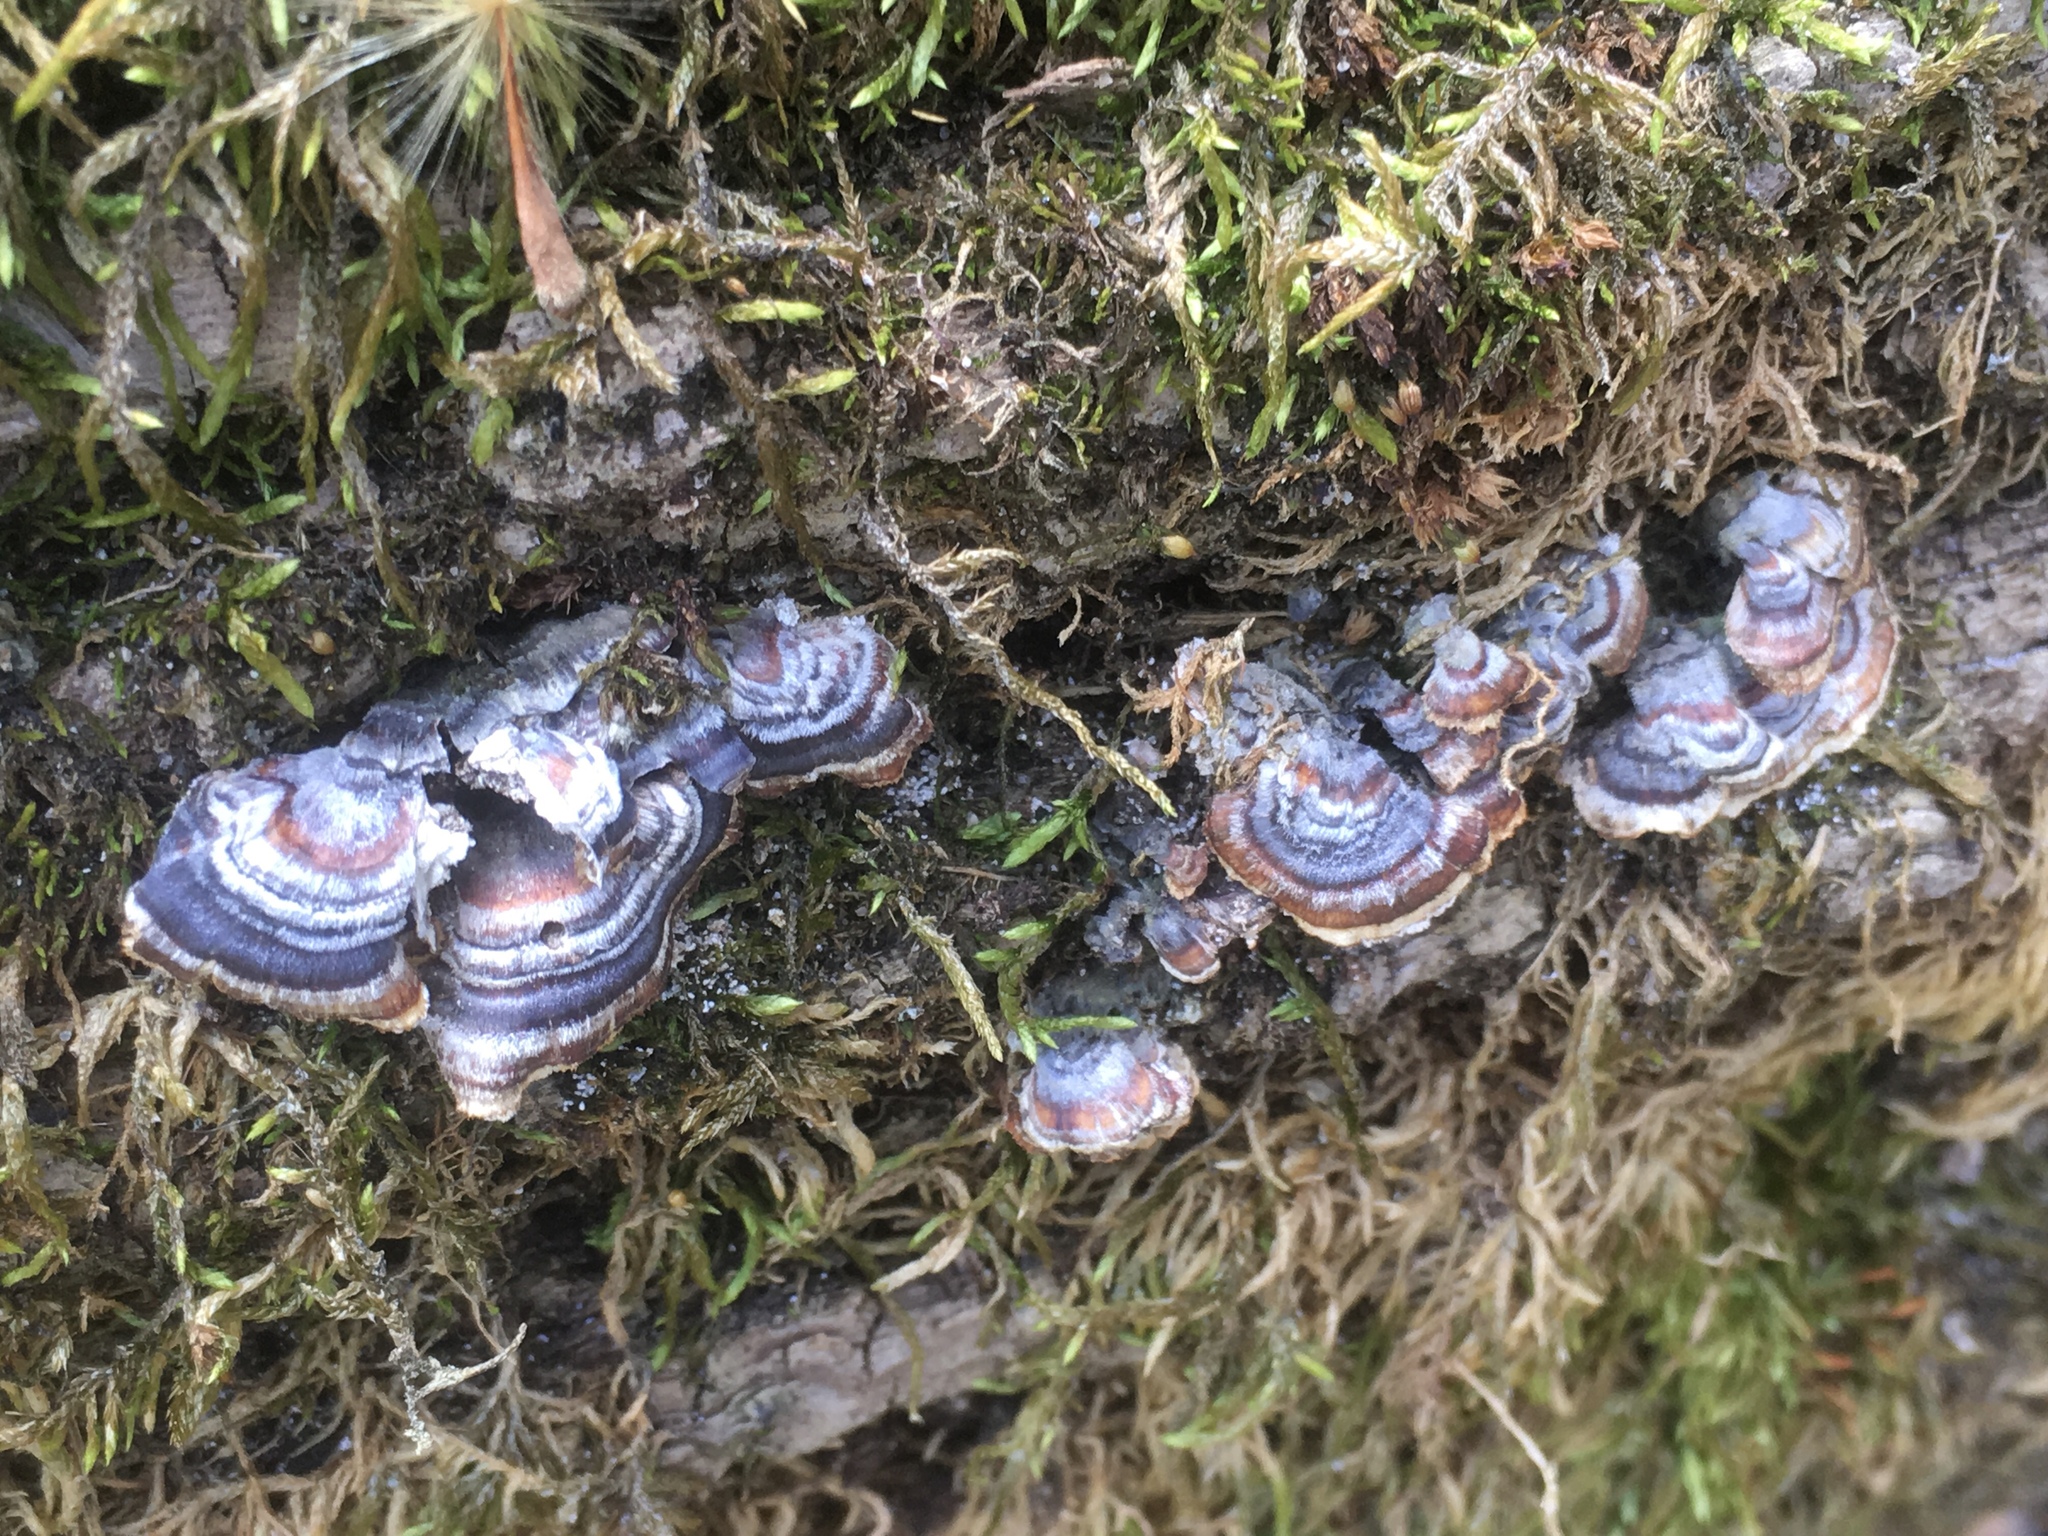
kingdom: Fungi
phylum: Basidiomycota
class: Agaricomycetes
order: Polyporales
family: Polyporaceae
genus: Trametes
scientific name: Trametes versicolor
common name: Turkeytail
